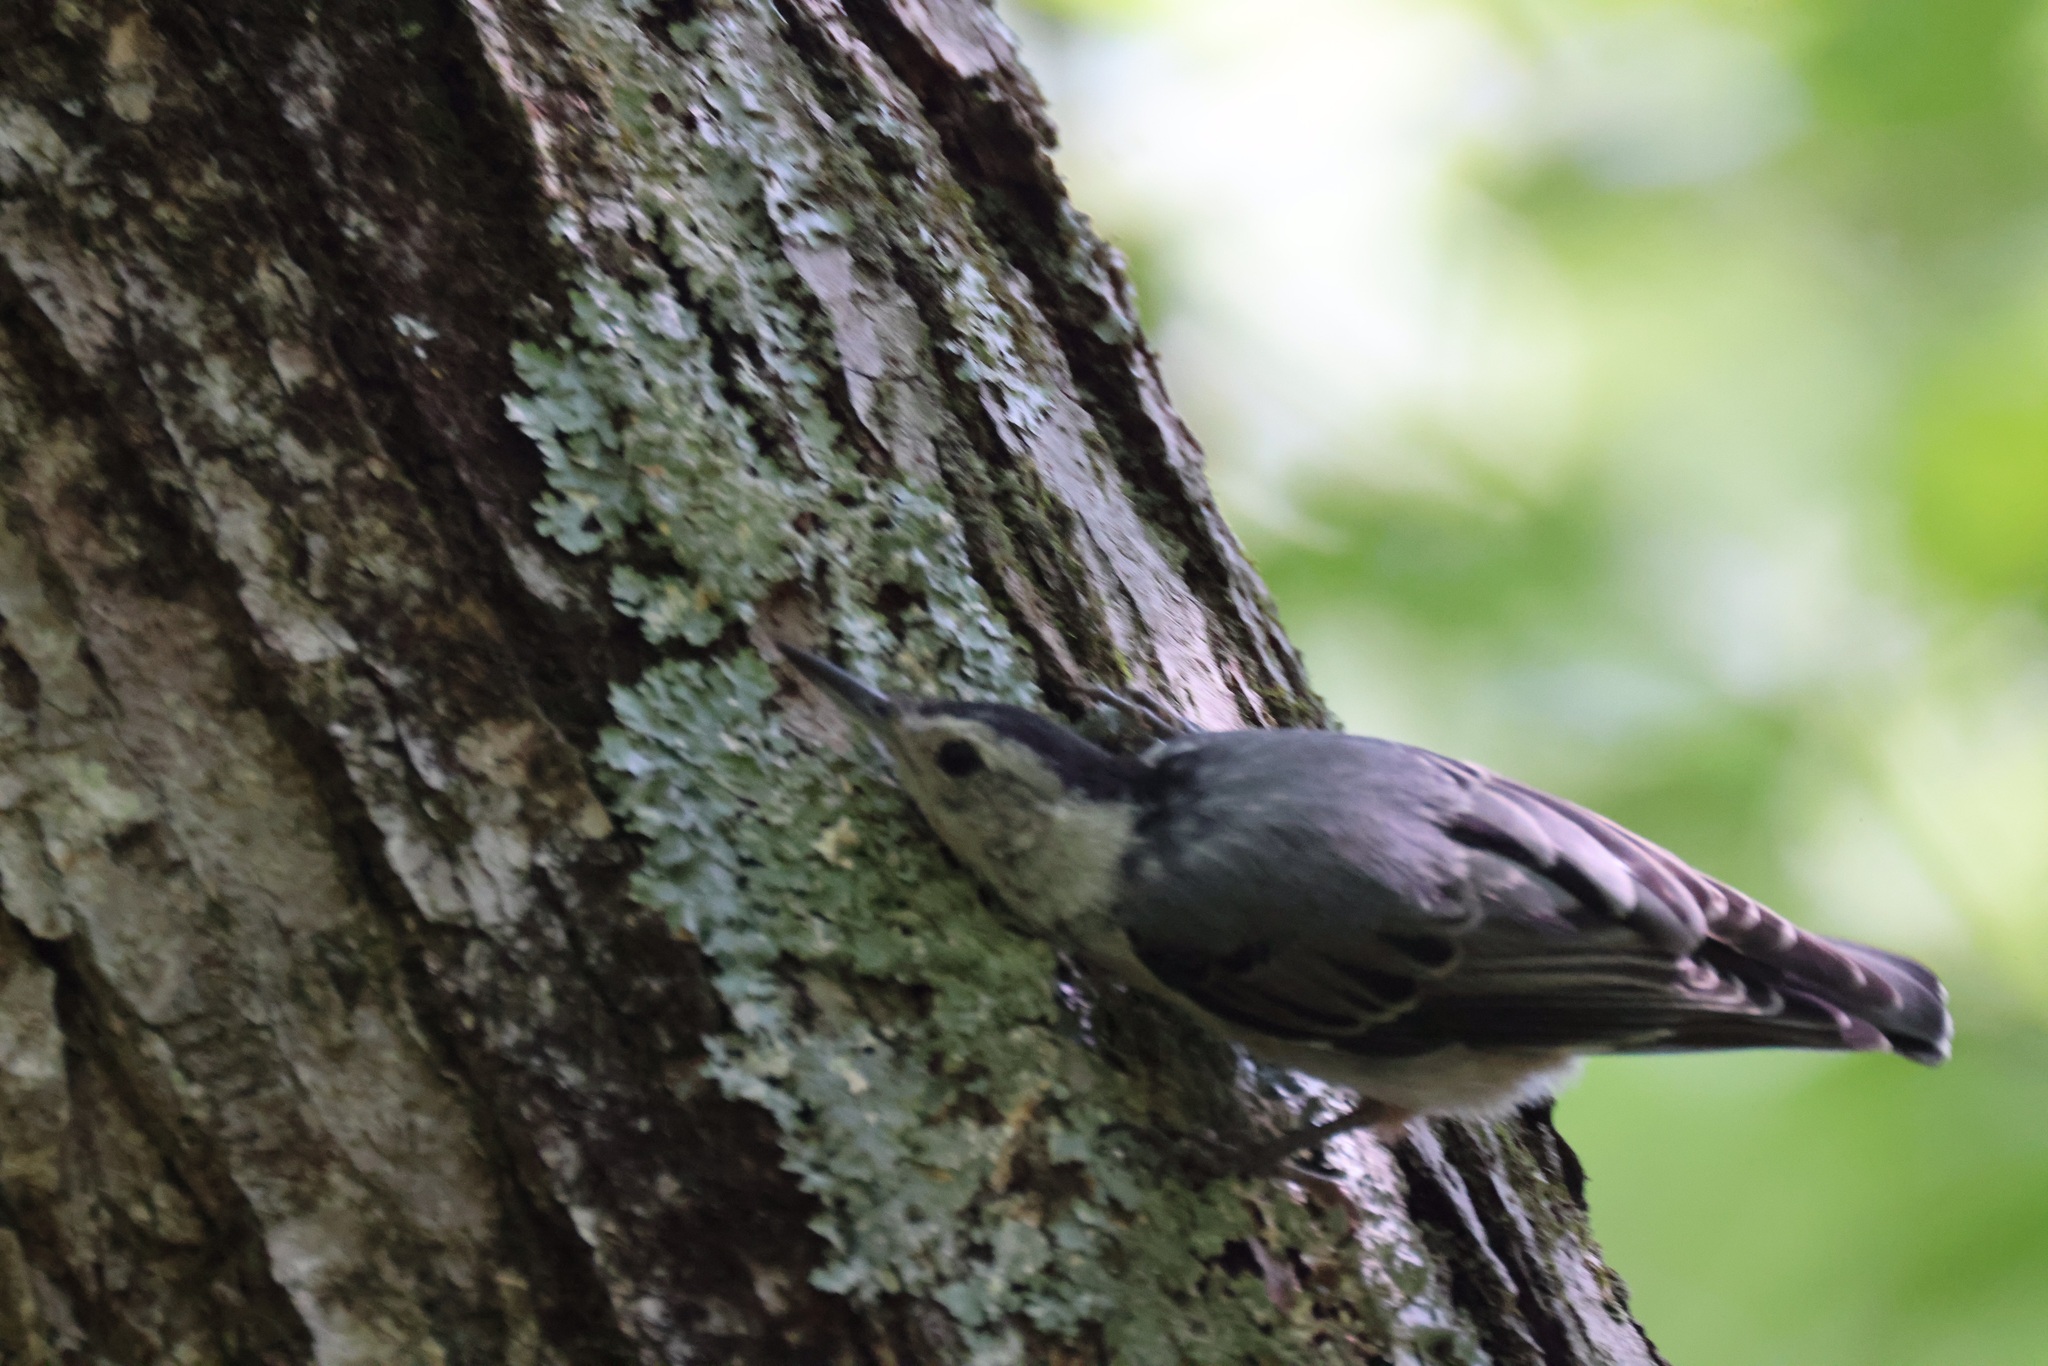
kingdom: Animalia
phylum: Chordata
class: Aves
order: Passeriformes
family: Sittidae
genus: Sitta
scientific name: Sitta carolinensis
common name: White-breasted nuthatch
